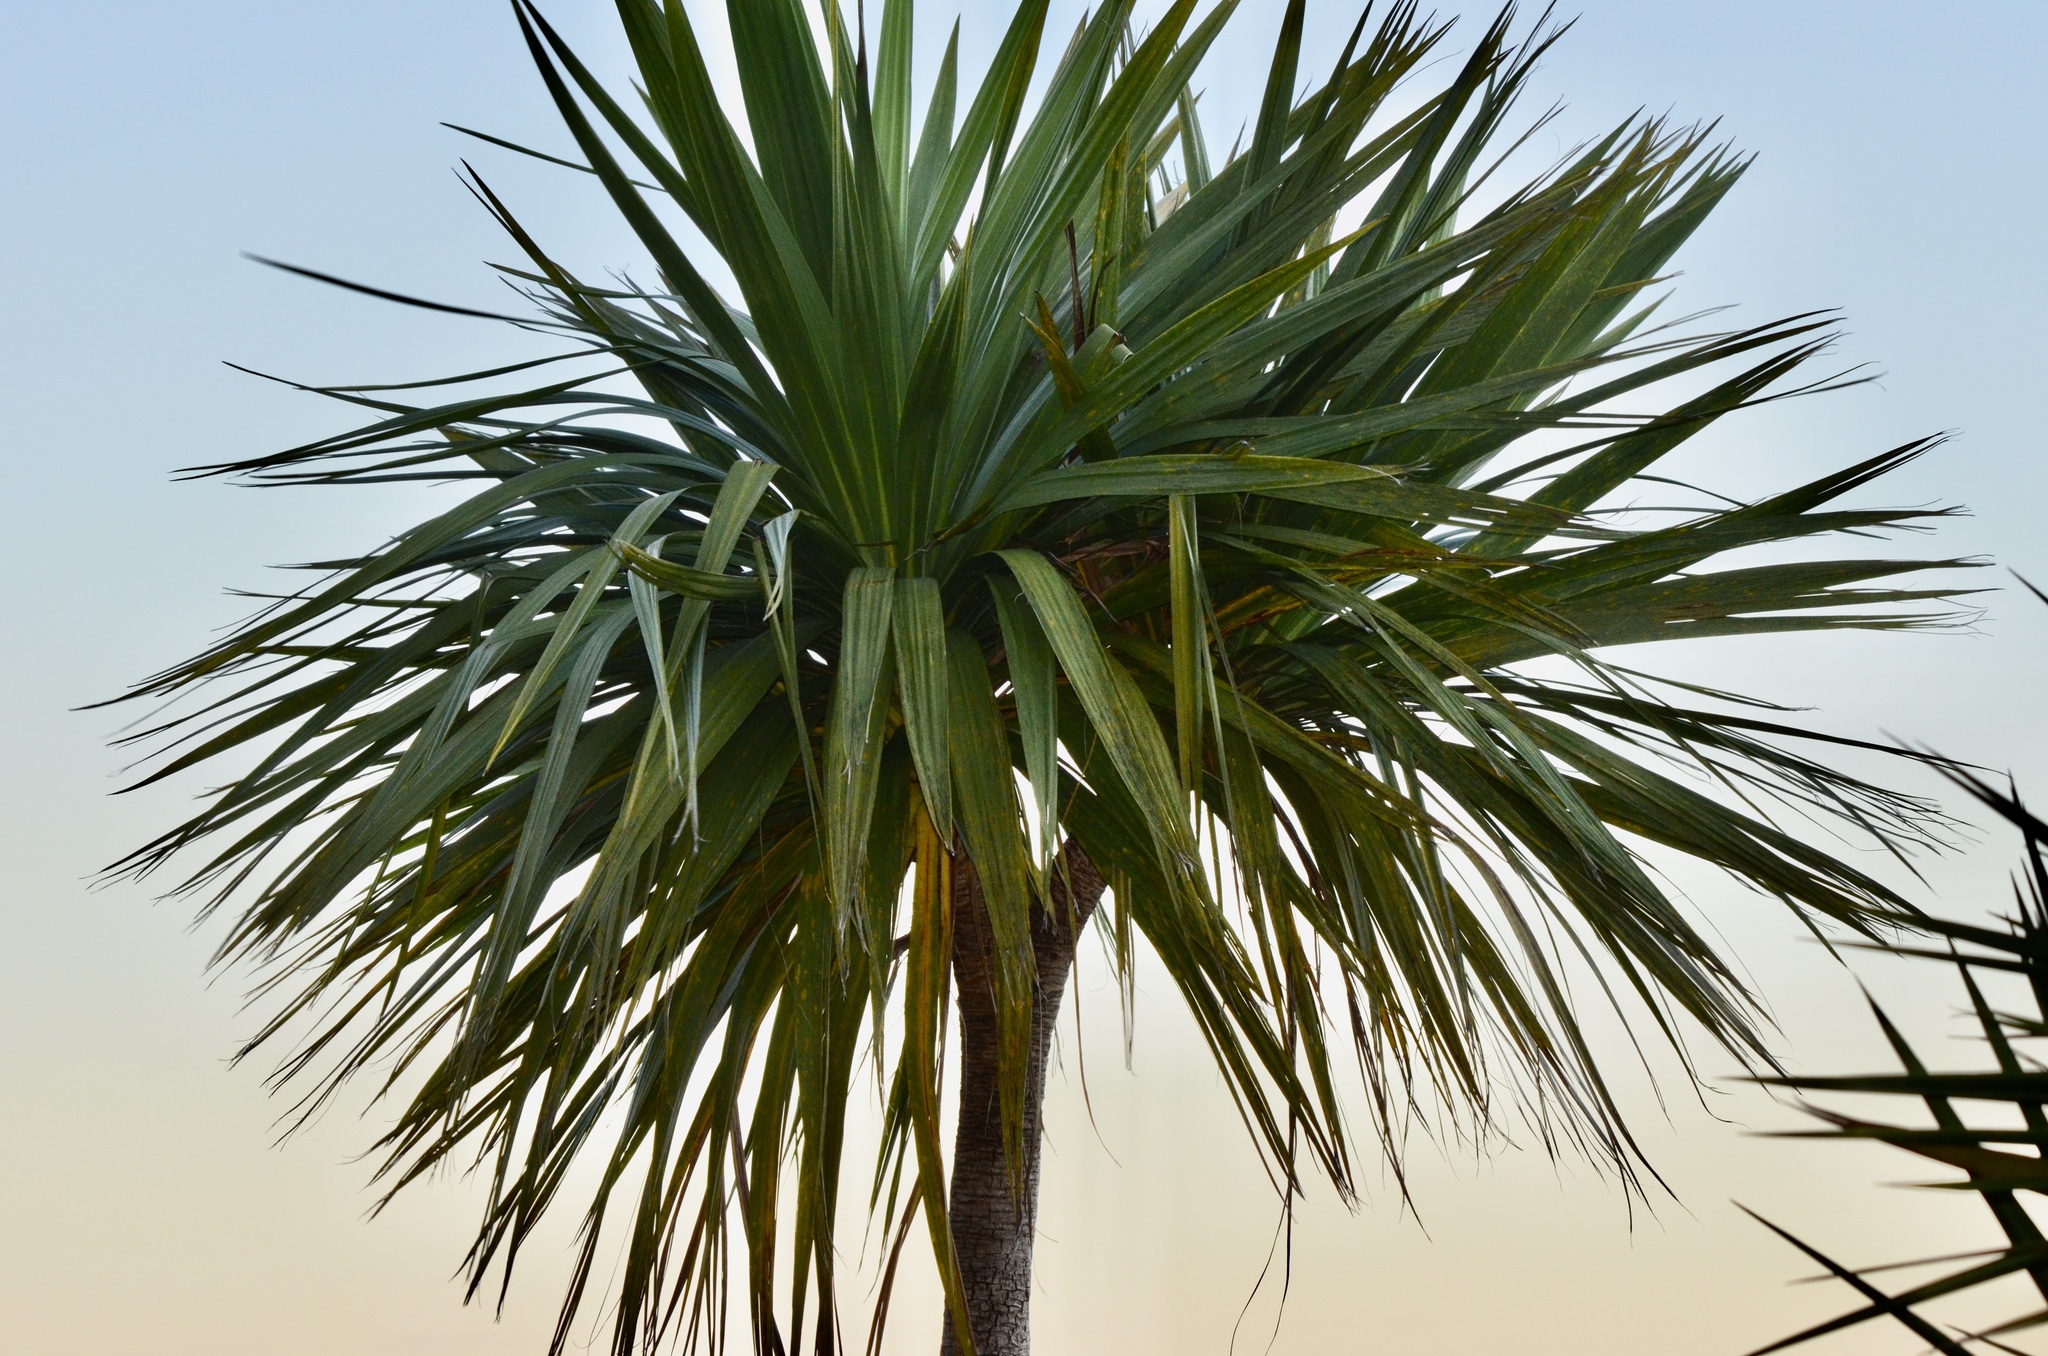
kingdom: Plantae
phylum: Tracheophyta
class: Liliopsida
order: Asparagales
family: Asparagaceae
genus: Cordyline
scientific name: Cordyline australis
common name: Cabbage-palm
